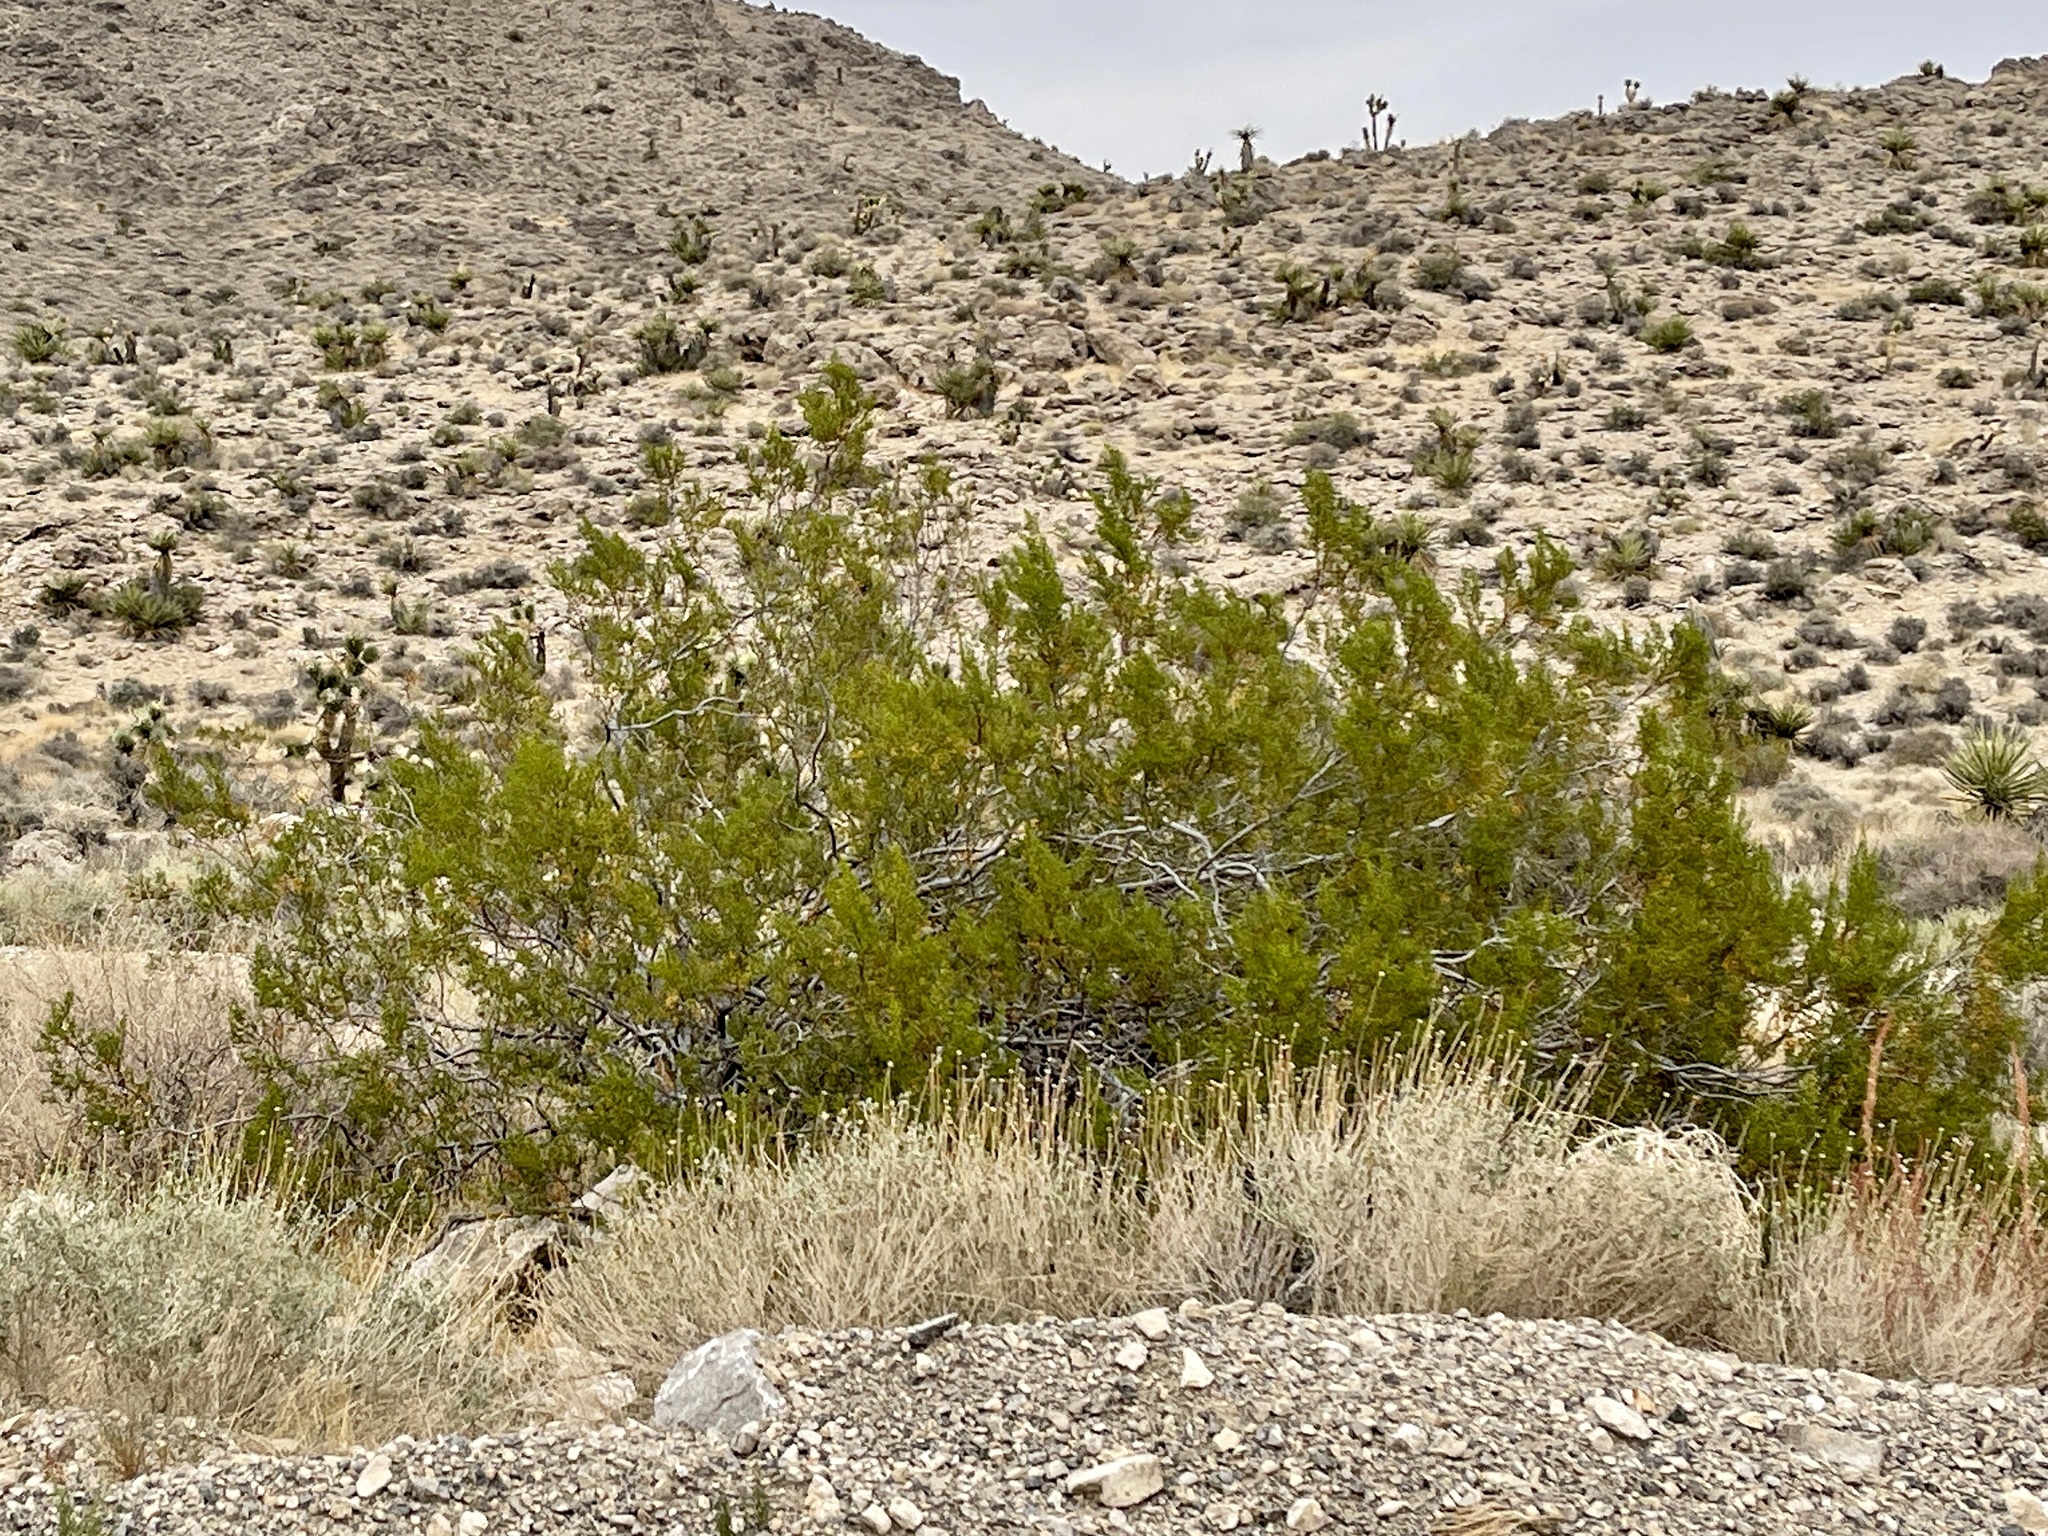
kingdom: Plantae
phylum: Tracheophyta
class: Magnoliopsida
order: Zygophyllales
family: Zygophyllaceae
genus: Larrea
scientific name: Larrea tridentata
